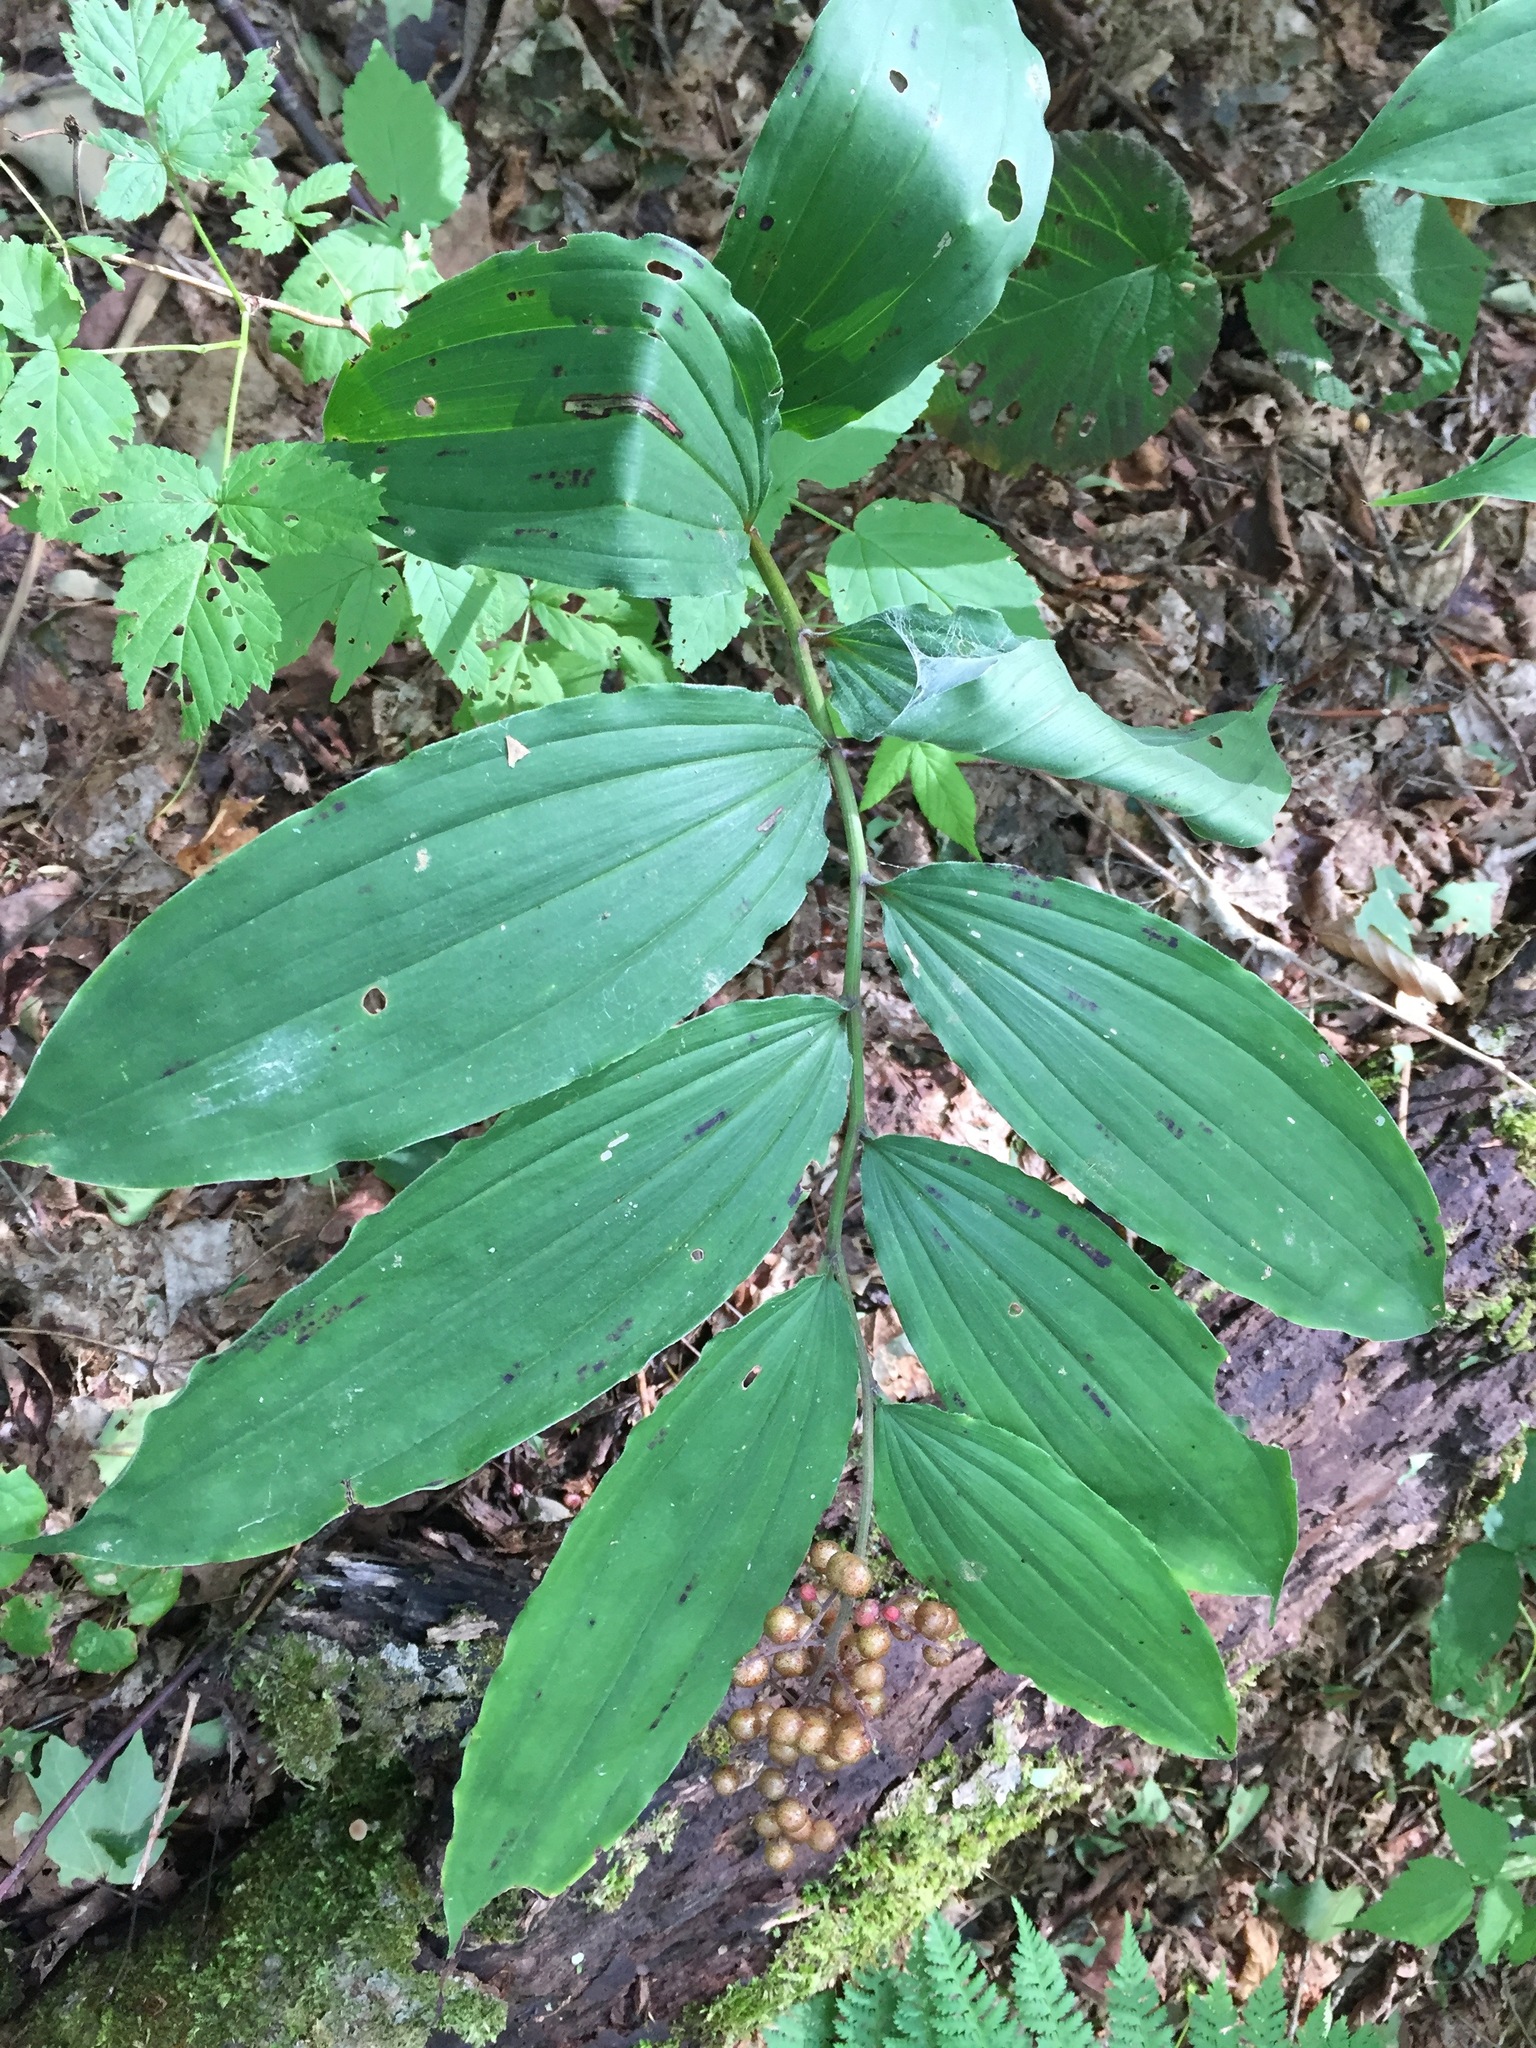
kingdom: Plantae
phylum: Tracheophyta
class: Liliopsida
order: Asparagales
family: Asparagaceae
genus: Maianthemum
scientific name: Maianthemum racemosum
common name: False spikenard
